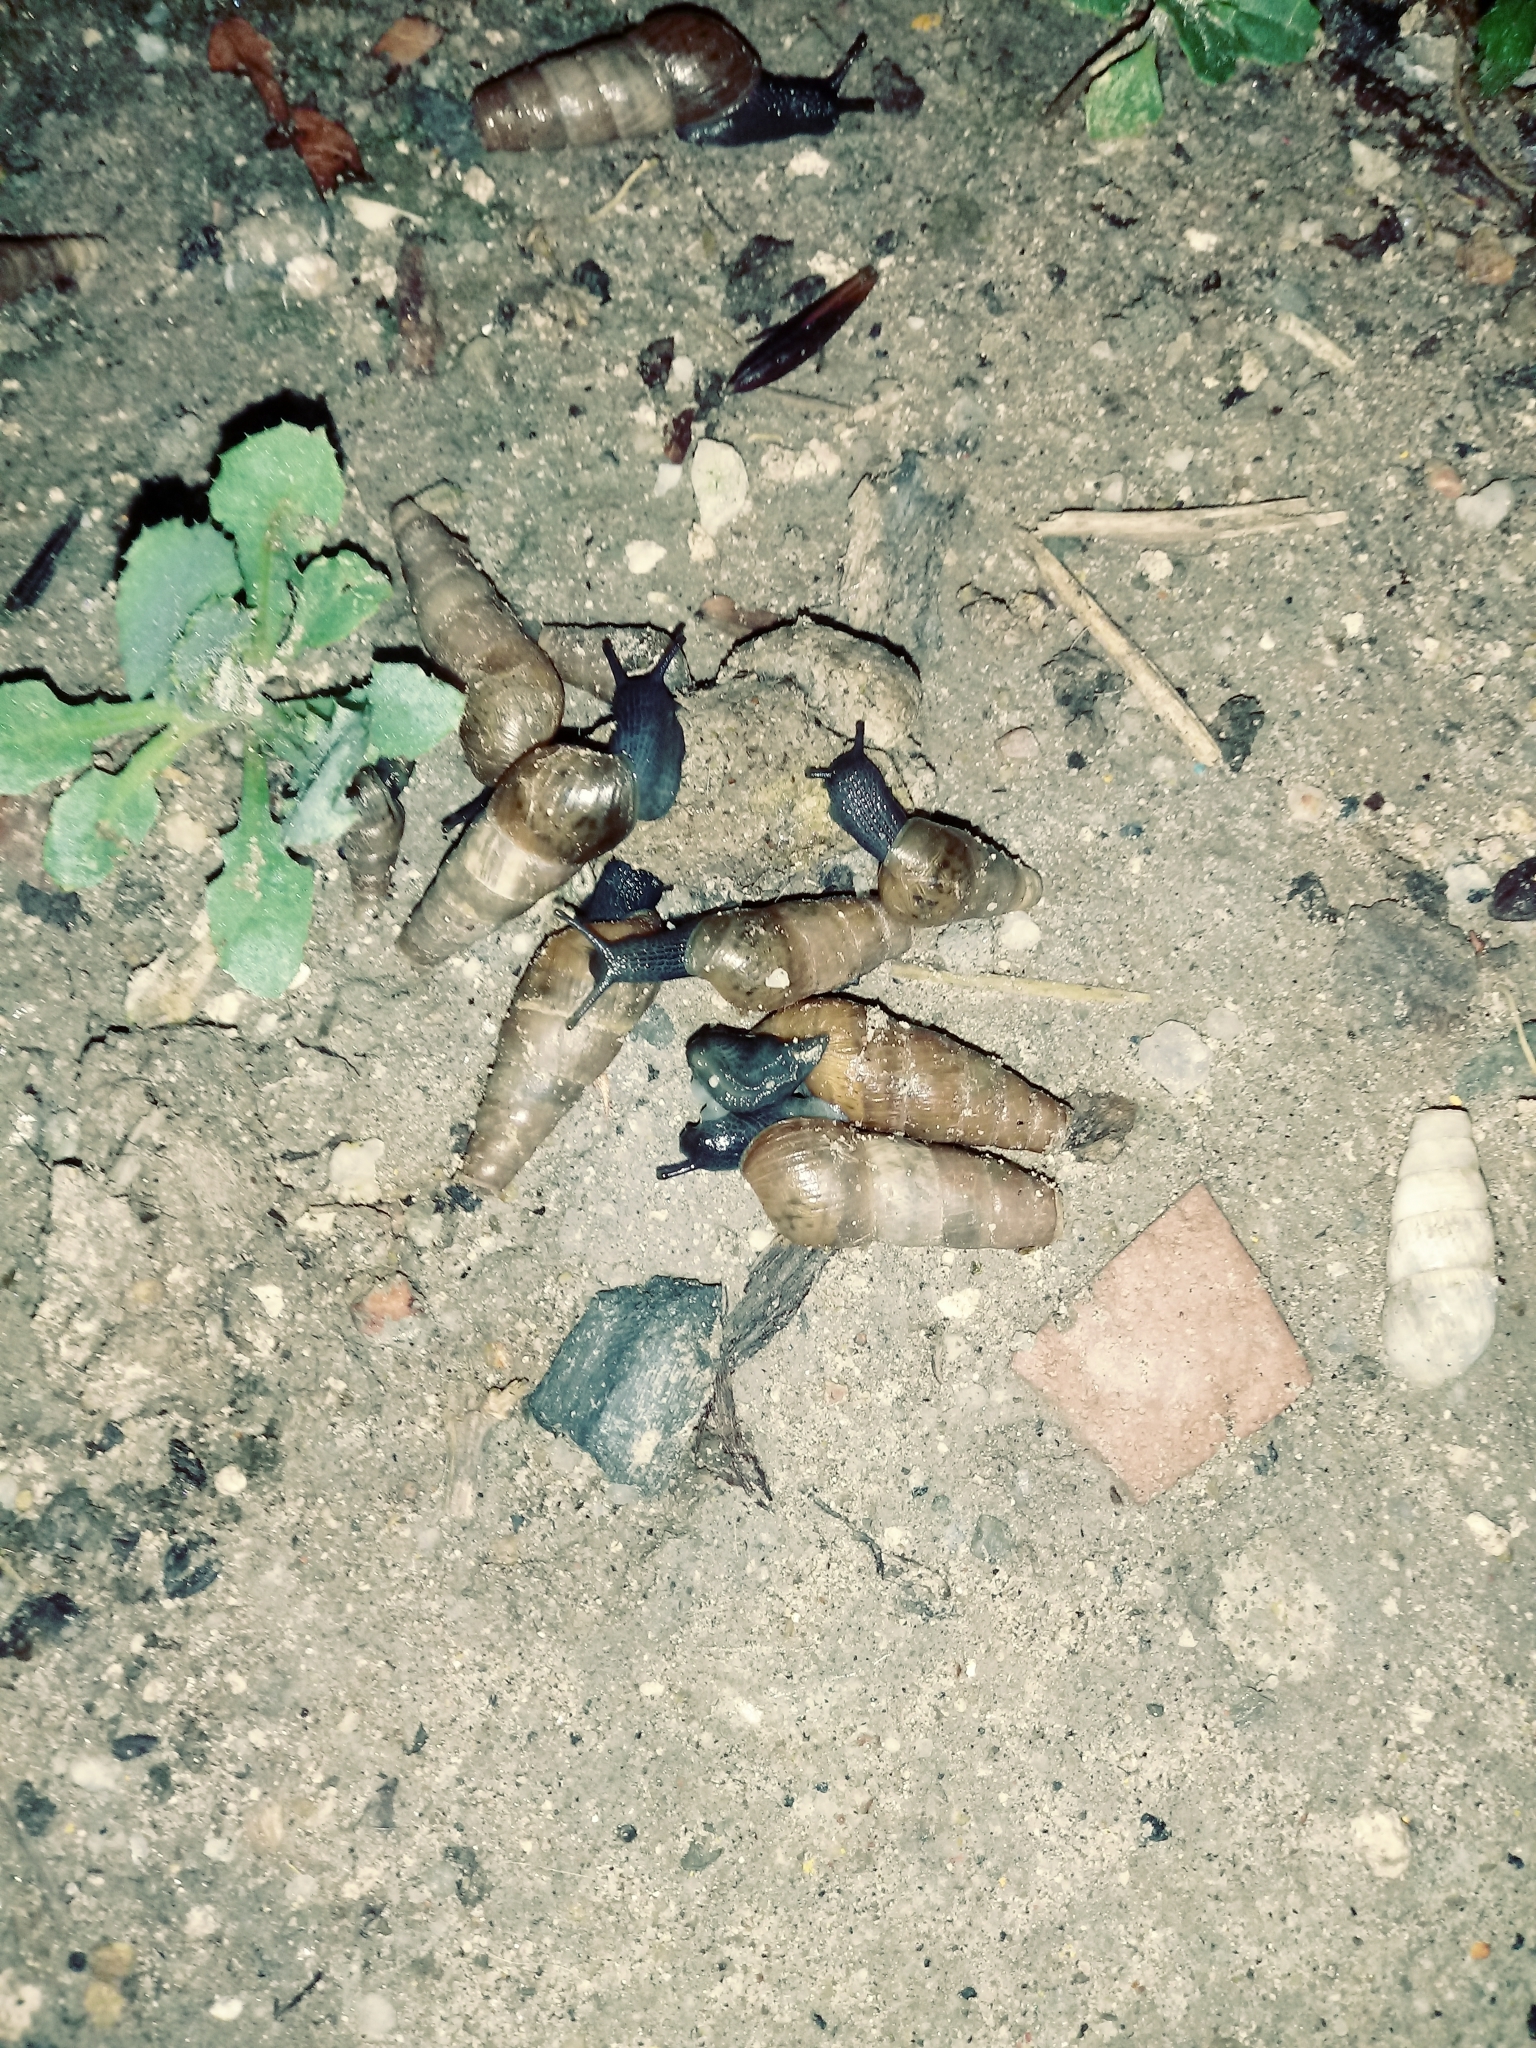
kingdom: Animalia
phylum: Mollusca
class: Gastropoda
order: Stylommatophora
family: Achatinidae
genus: Rumina
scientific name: Rumina decollata
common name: Decollate snail
